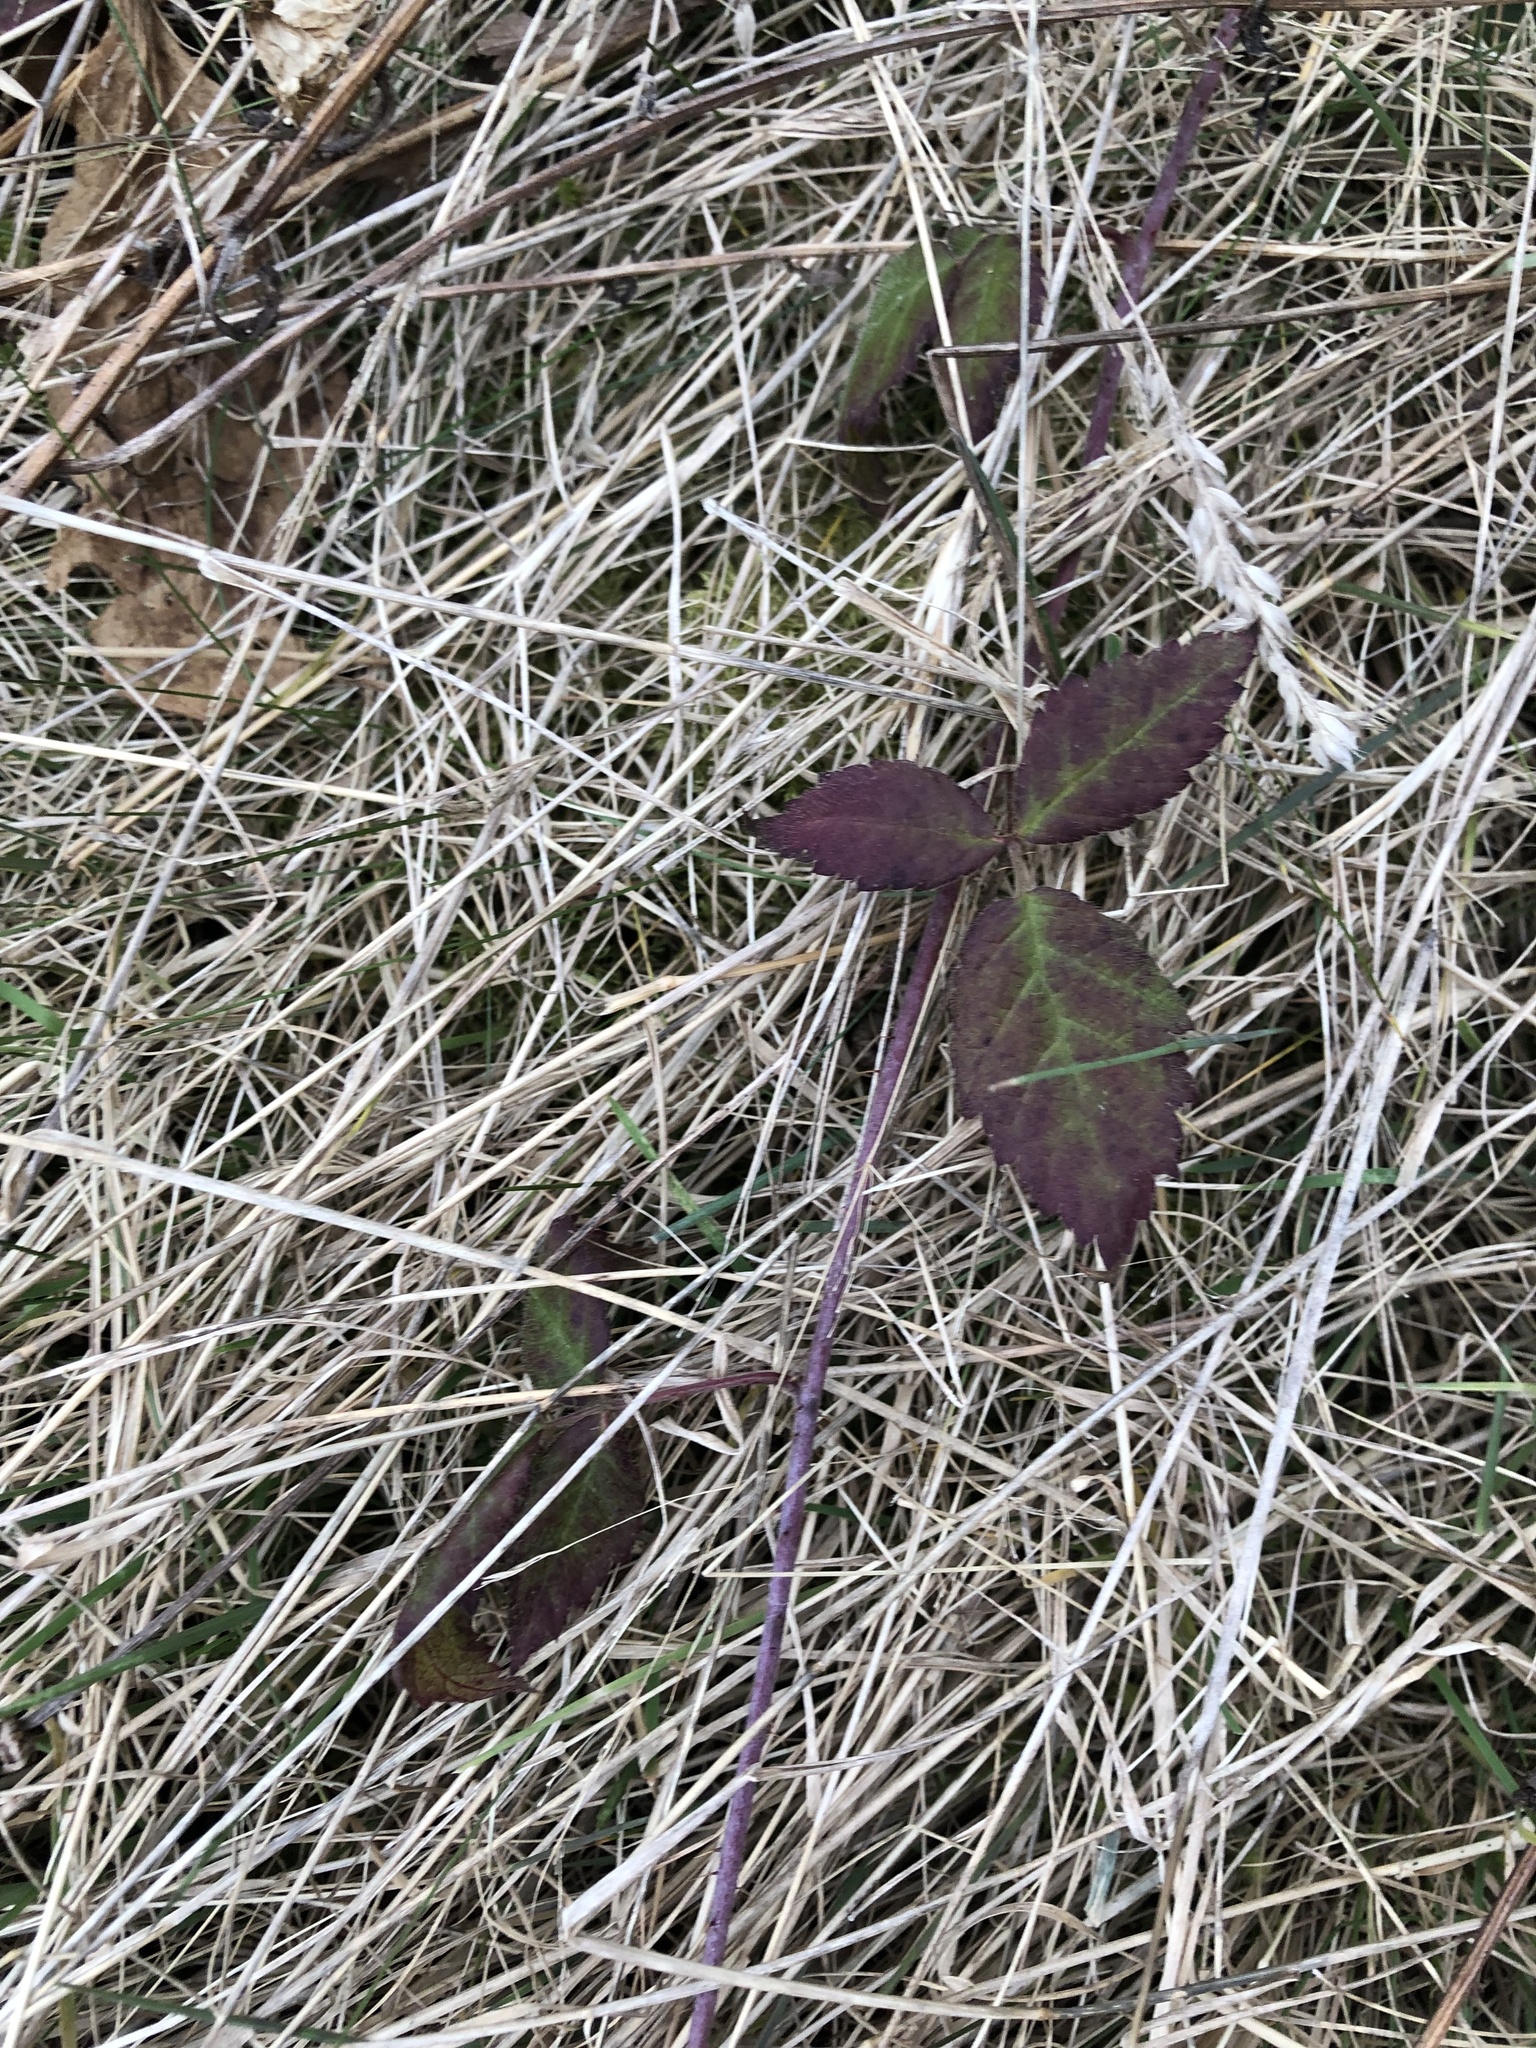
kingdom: Plantae
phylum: Tracheophyta
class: Magnoliopsida
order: Rosales
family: Rosaceae
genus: Rubus
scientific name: Rubus ursinus
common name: Pacific blackberry
